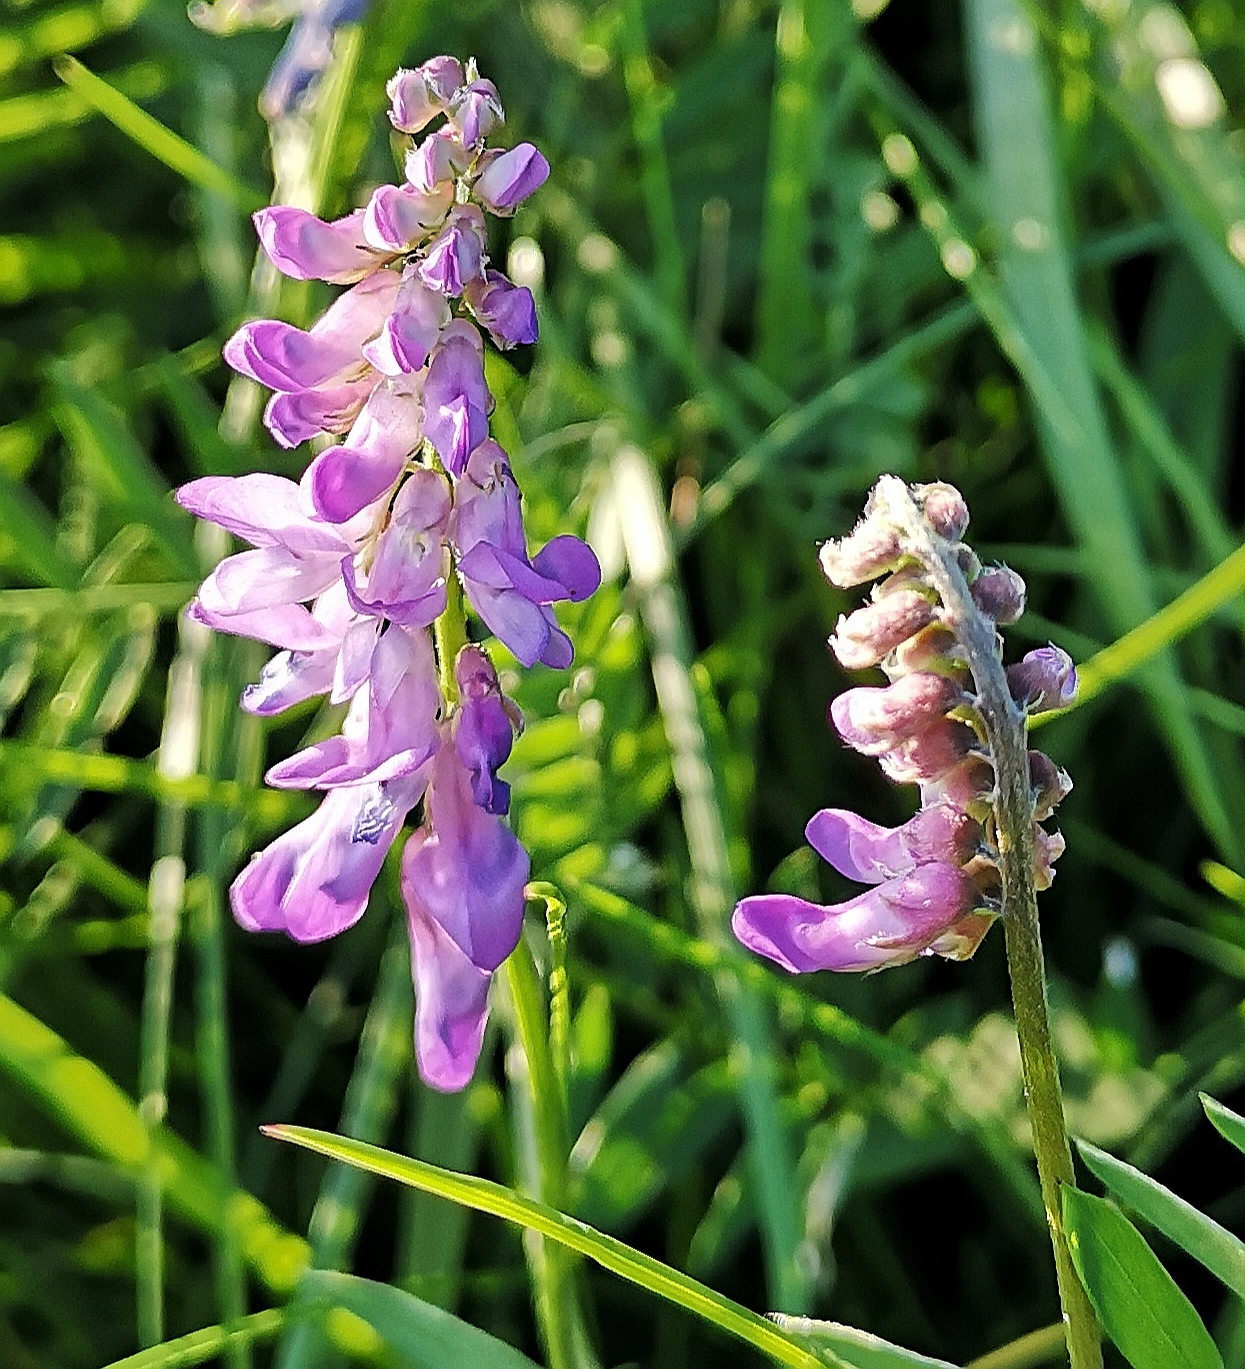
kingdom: Plantae
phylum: Tracheophyta
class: Magnoliopsida
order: Fabales
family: Fabaceae
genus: Vicia
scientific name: Vicia cracca
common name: Bird vetch
